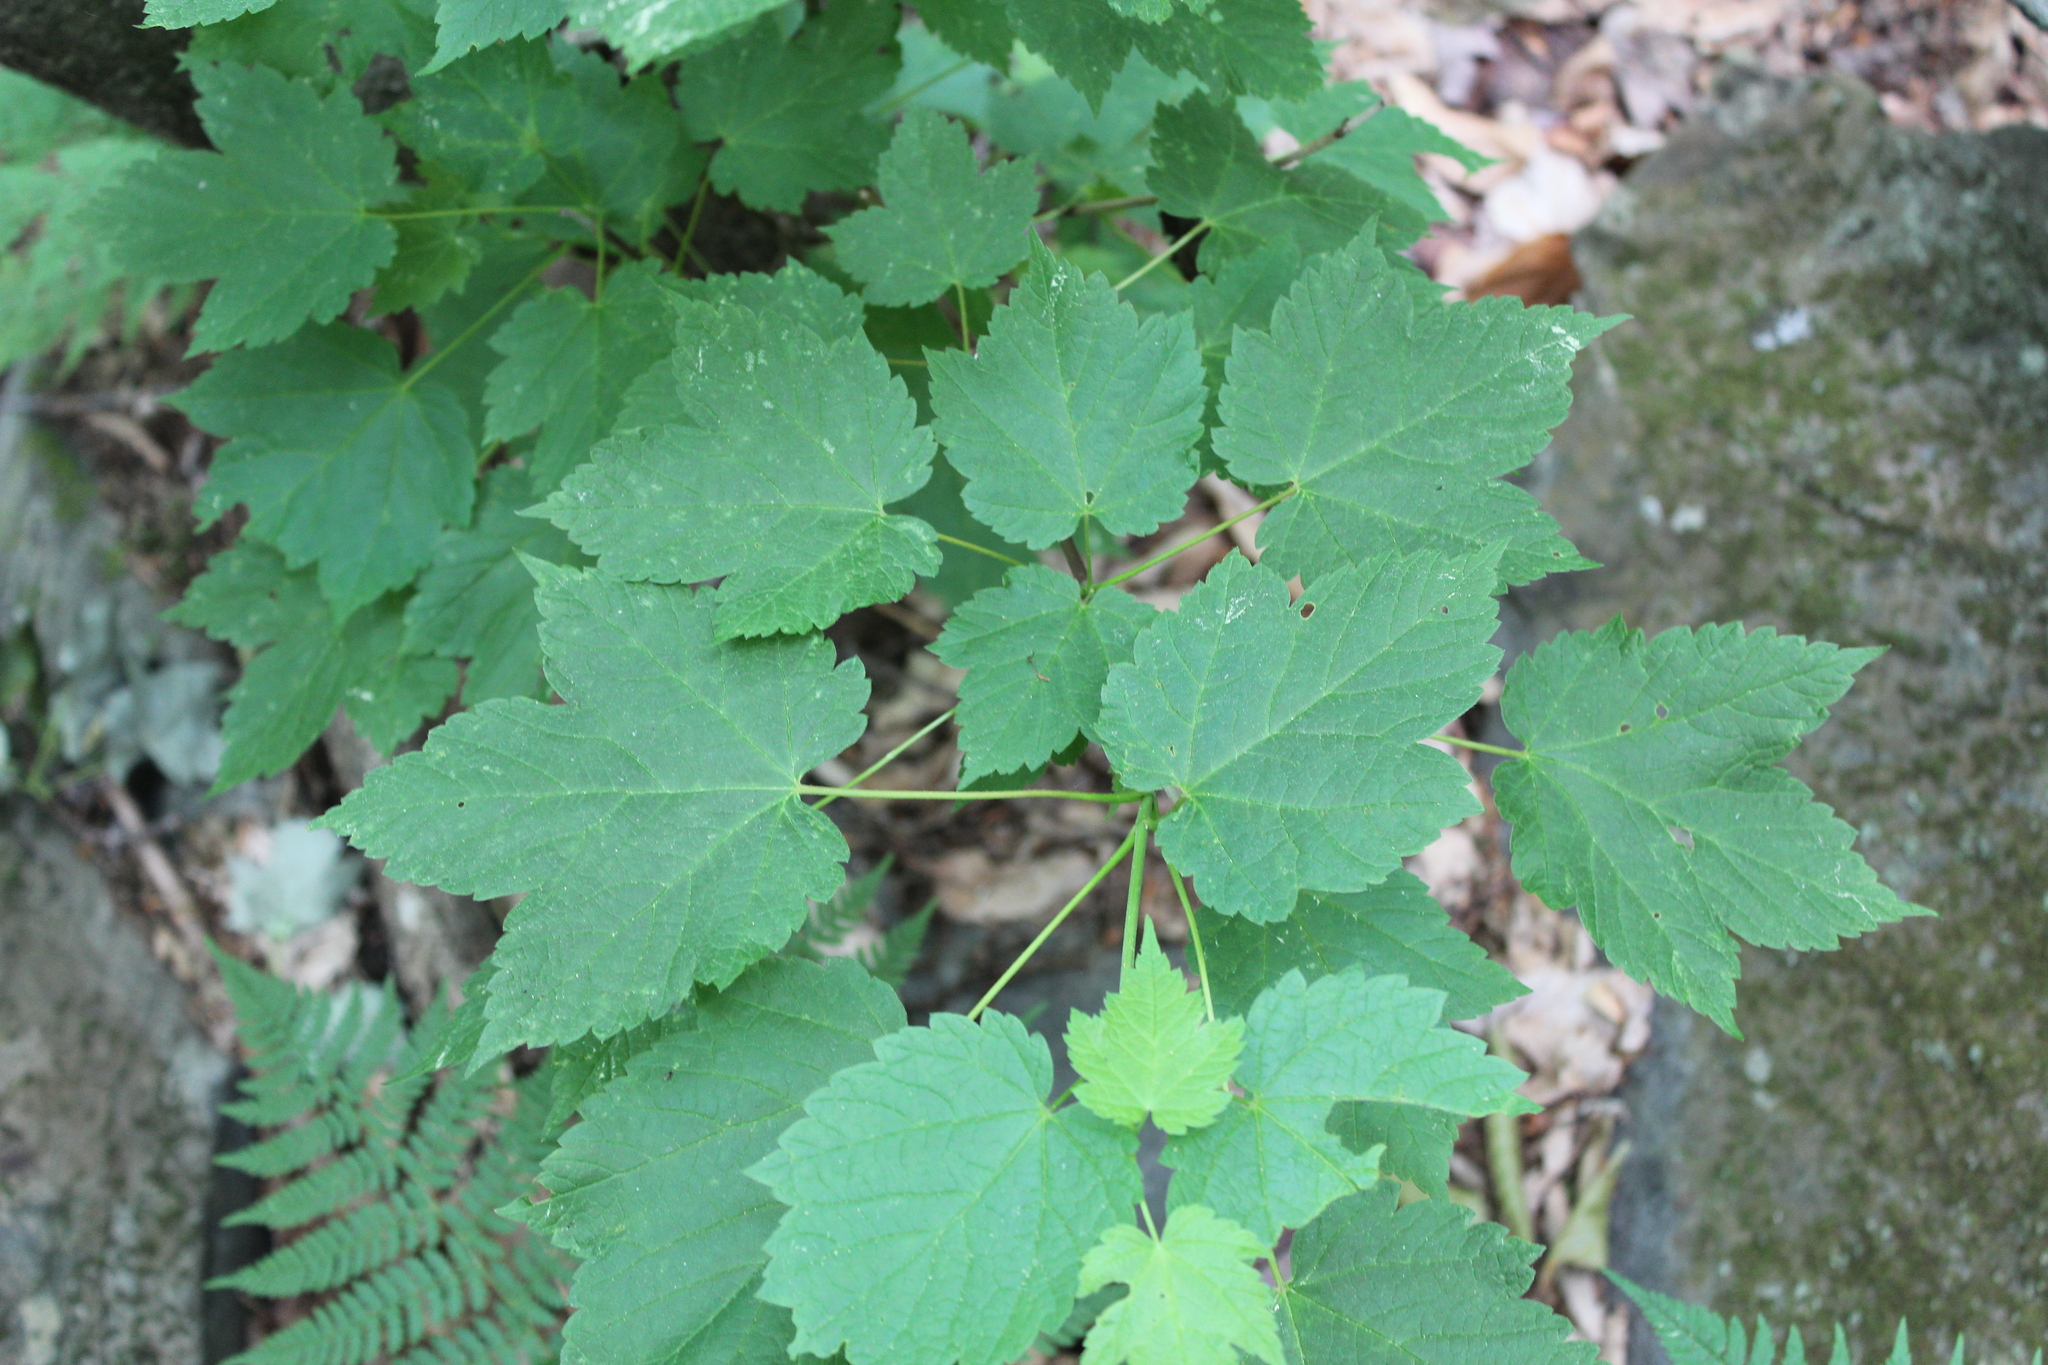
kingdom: Plantae
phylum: Tracheophyta
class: Magnoliopsida
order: Sapindales
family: Sapindaceae
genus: Acer
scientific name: Acer spicatum
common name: Mountain maple
